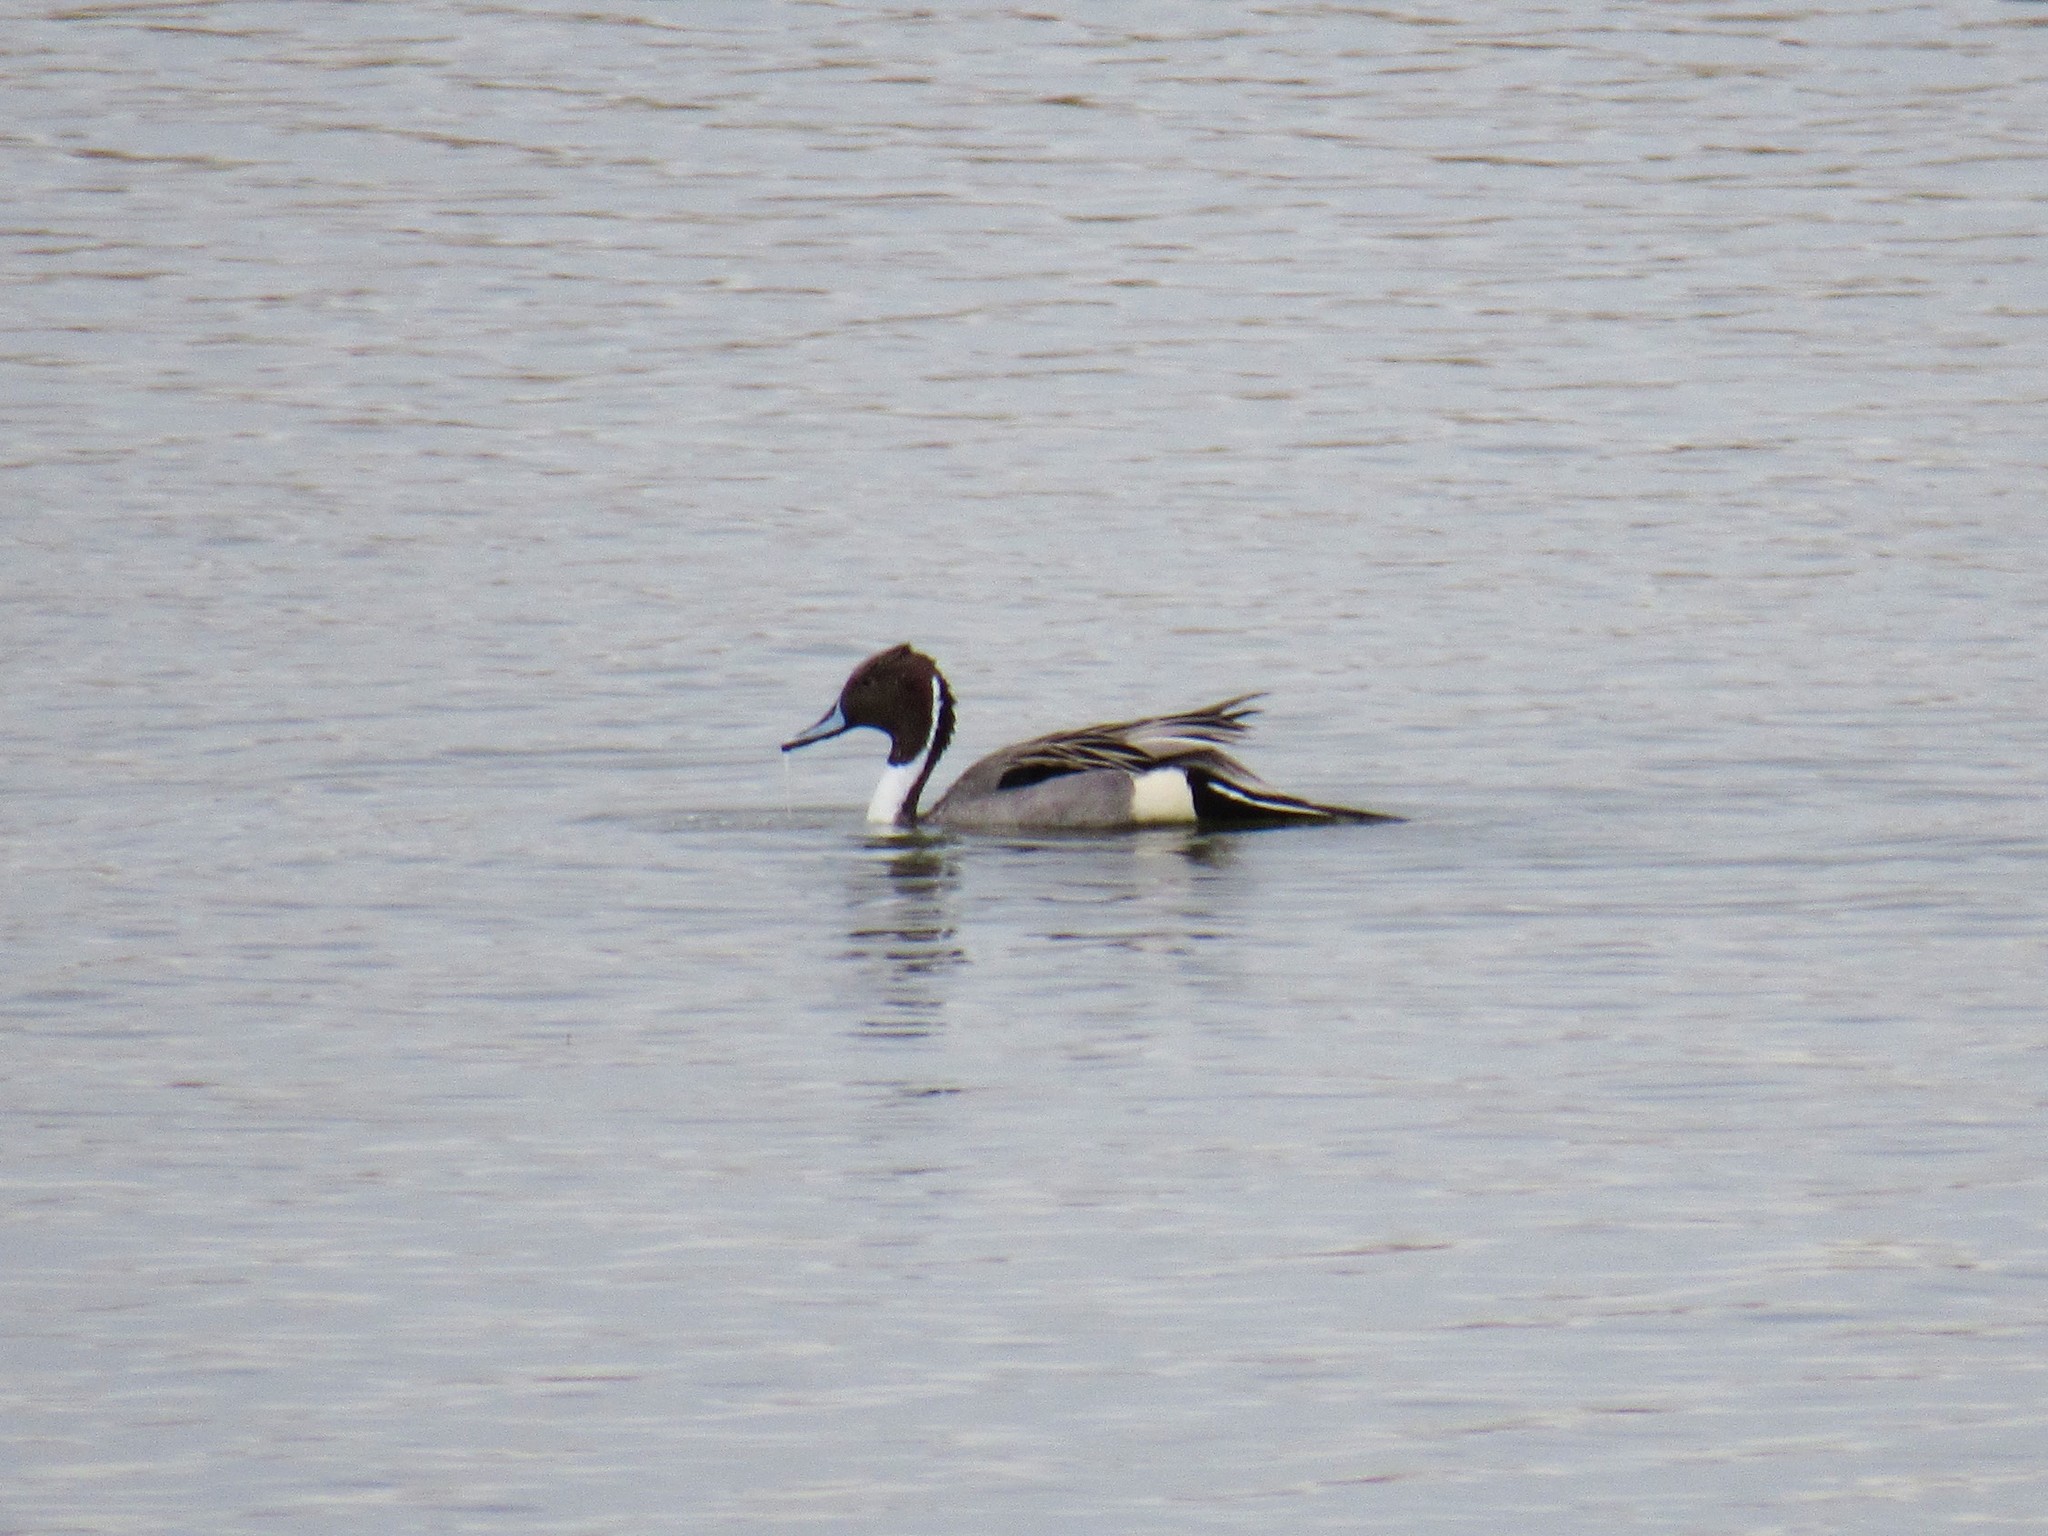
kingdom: Animalia
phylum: Chordata
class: Aves
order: Anseriformes
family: Anatidae
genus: Anas
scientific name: Anas acuta
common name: Northern pintail
